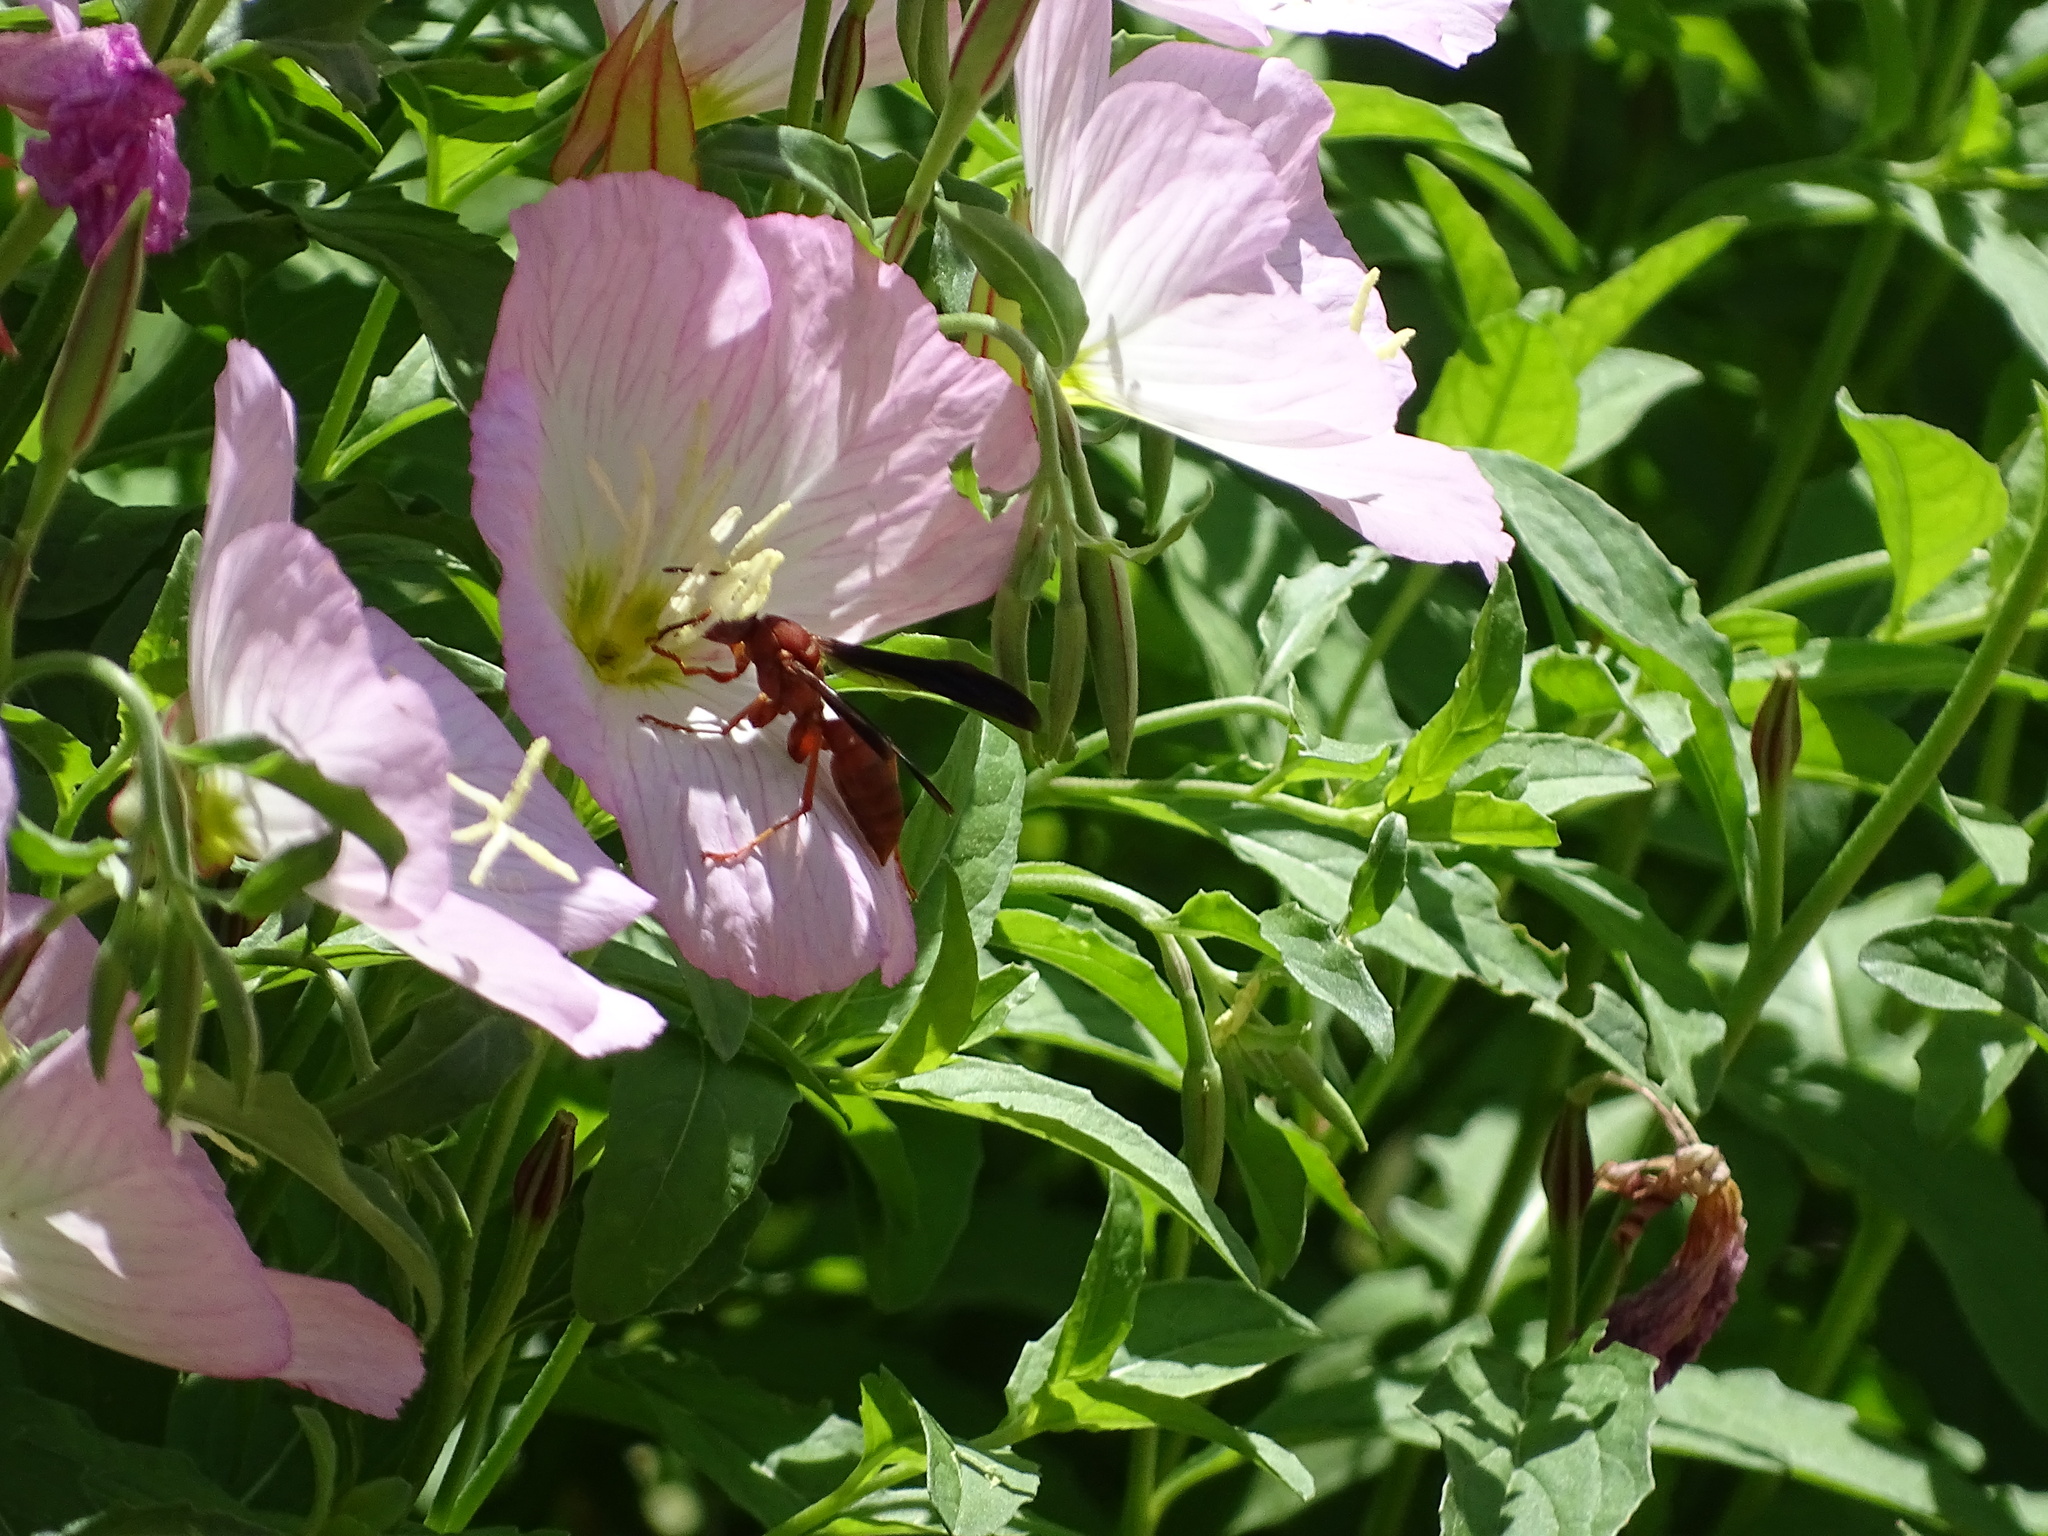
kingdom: Animalia
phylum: Arthropoda
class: Insecta
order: Hymenoptera
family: Eumenidae
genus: Polistes
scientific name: Polistes carolina
